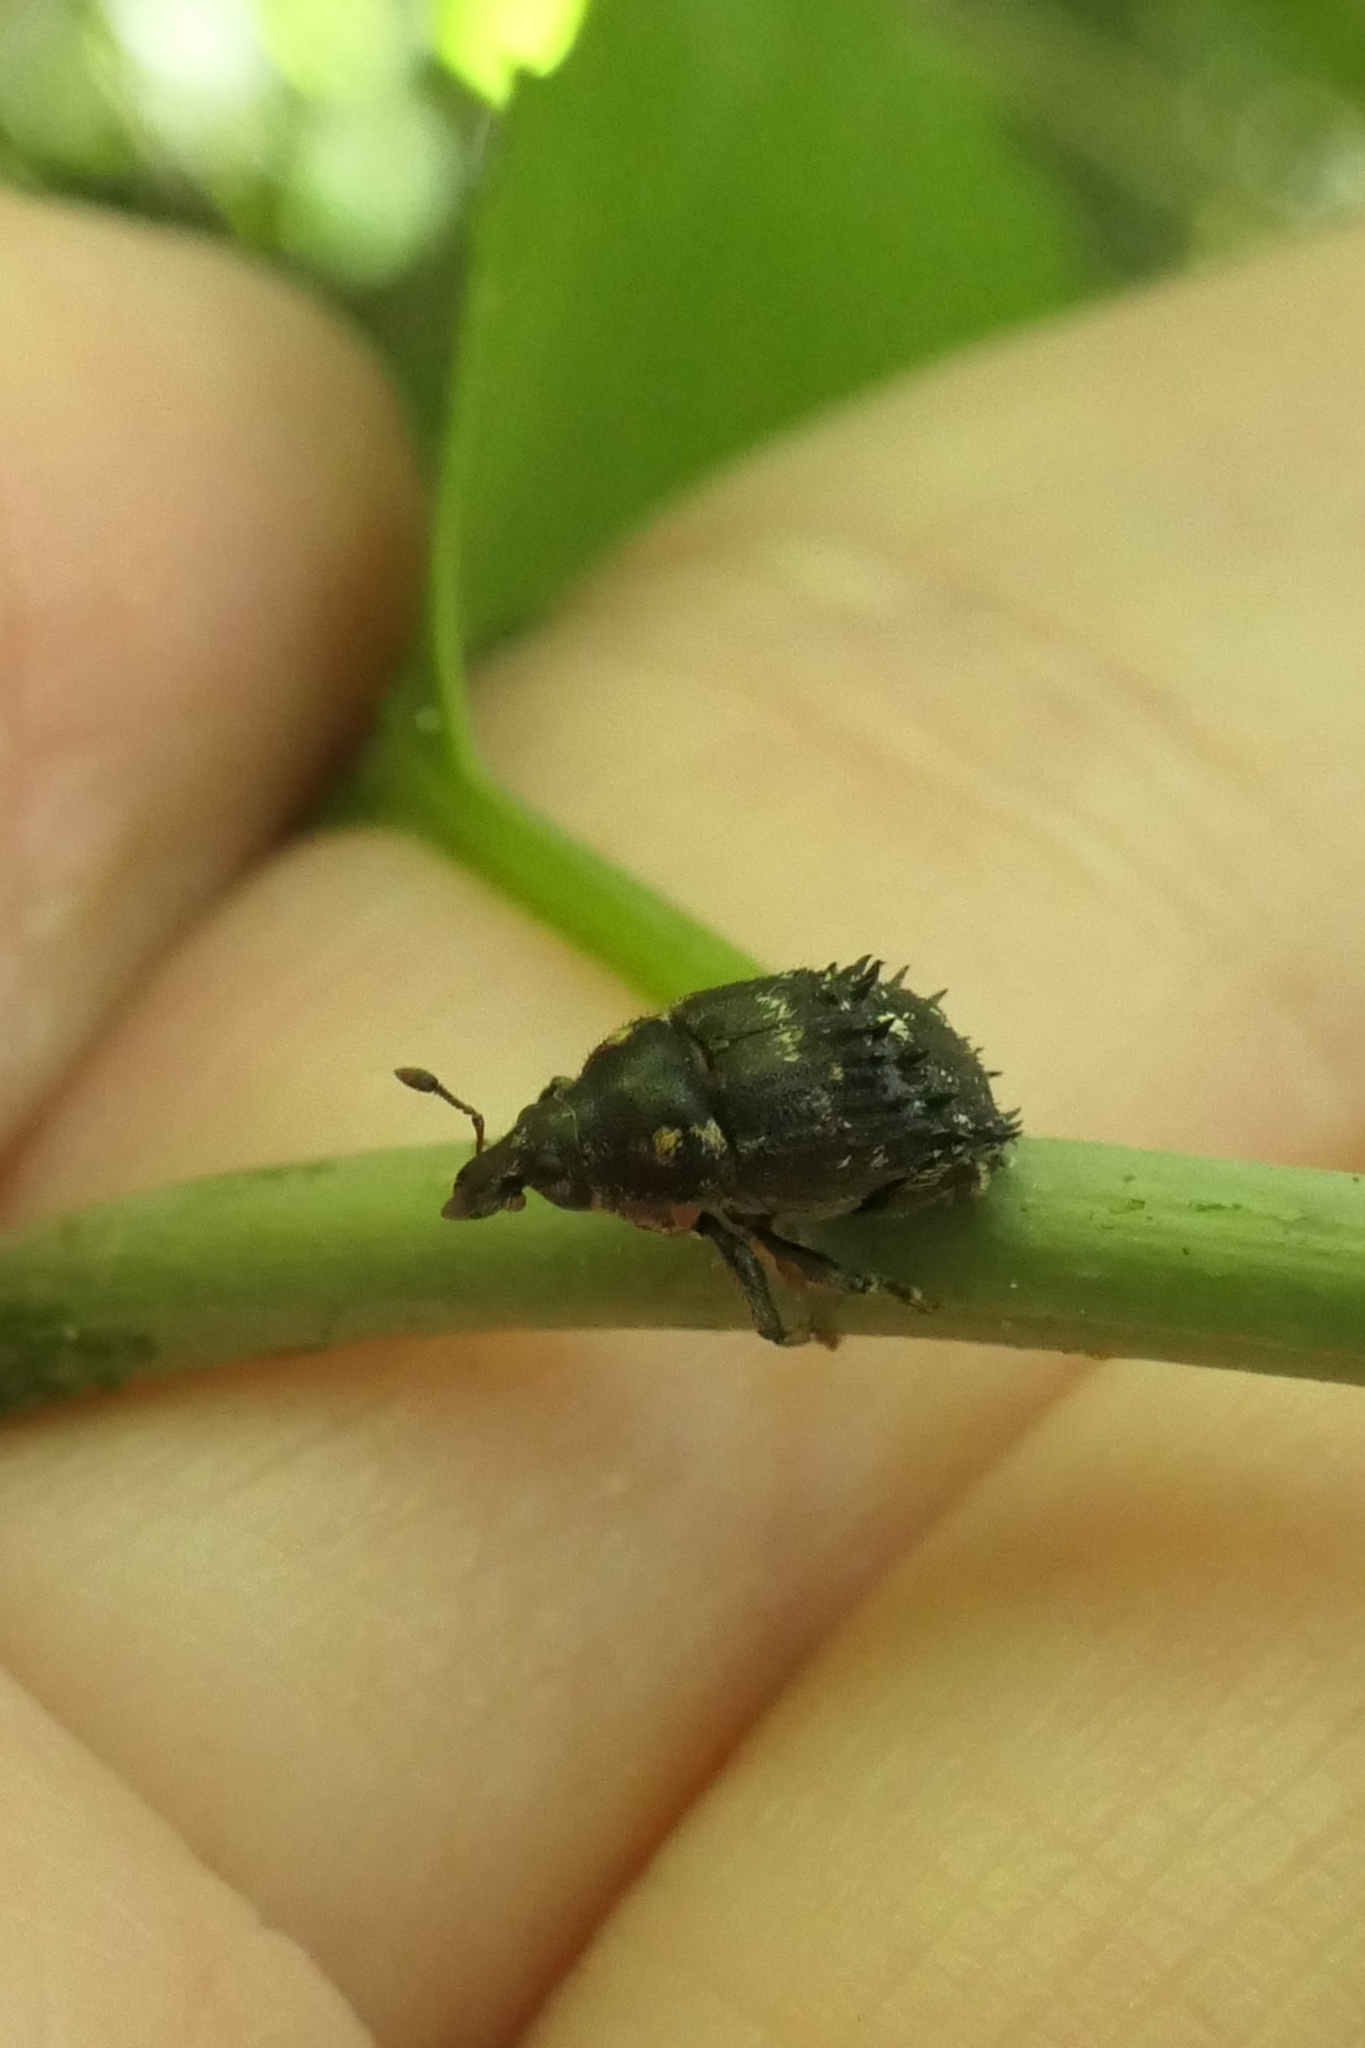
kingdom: Animalia
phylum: Arthropoda
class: Insecta
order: Coleoptera
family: Curculionidae
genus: Psepholax
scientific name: Psepholax coronatus
